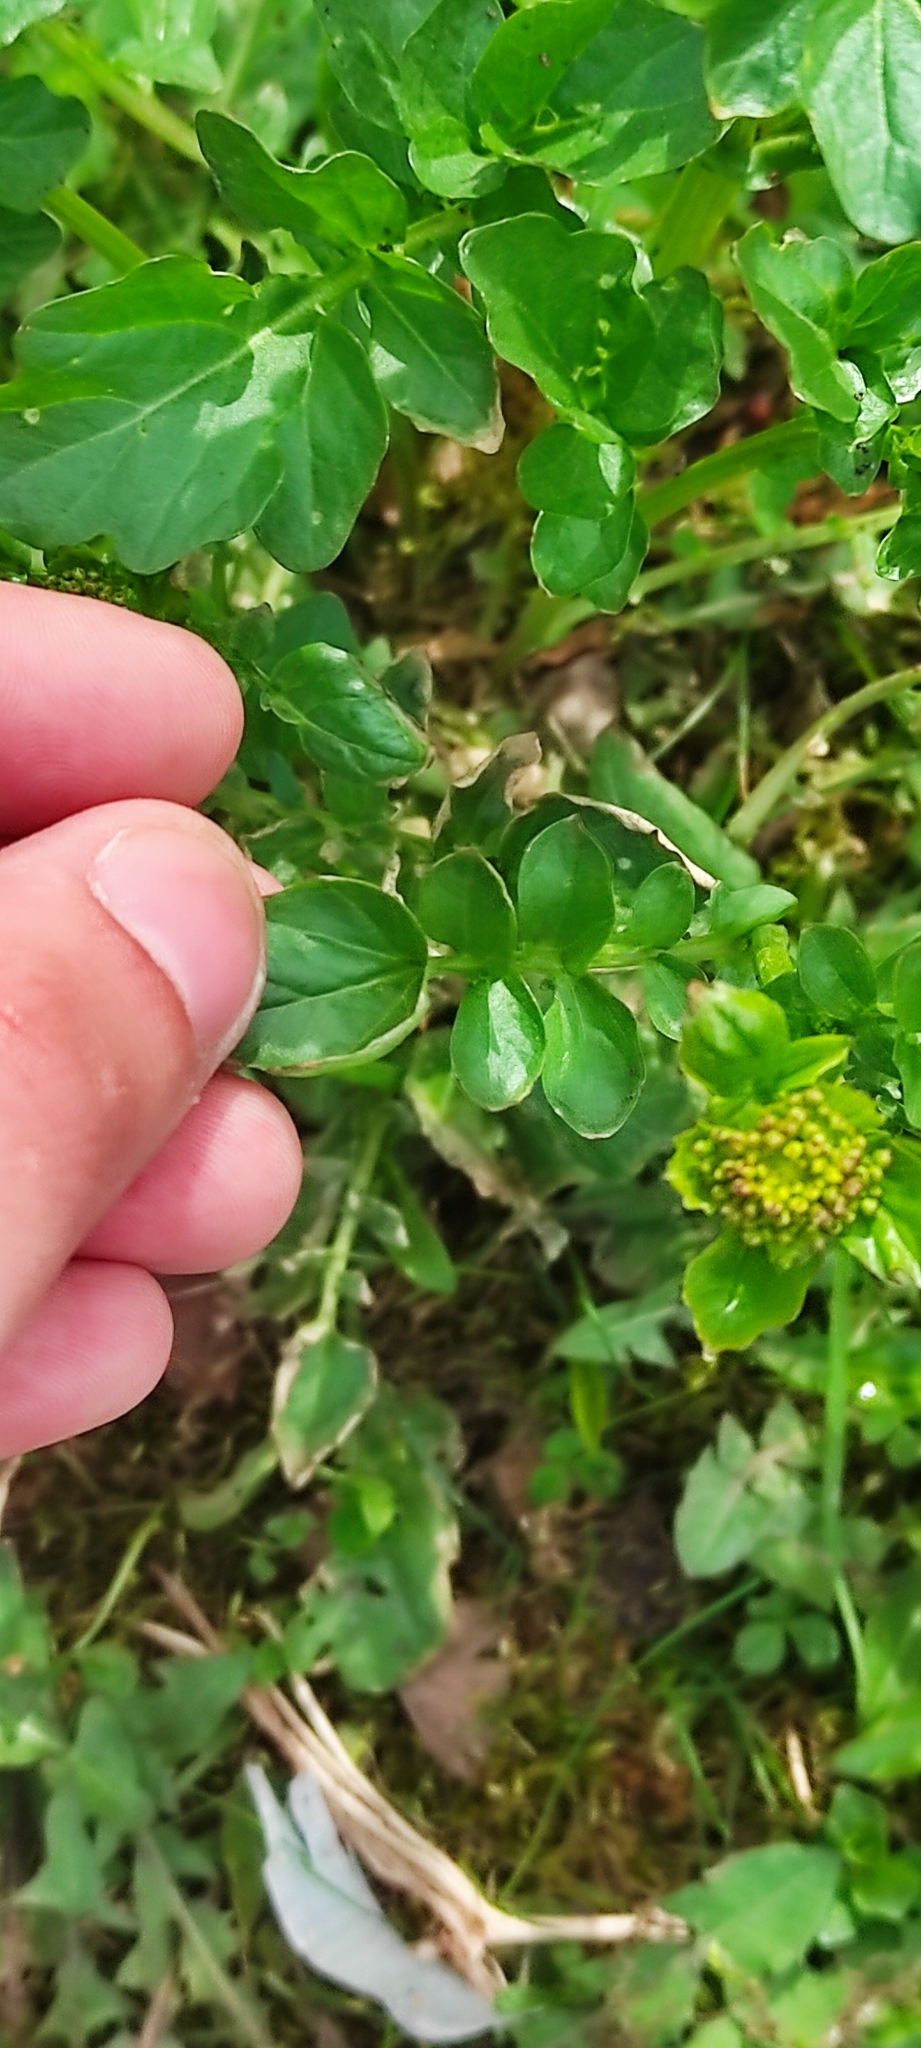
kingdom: Plantae
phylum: Tracheophyta
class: Magnoliopsida
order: Brassicales
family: Brassicaceae
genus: Barbarea
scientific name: Barbarea vulgaris
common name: Cressy-greens
